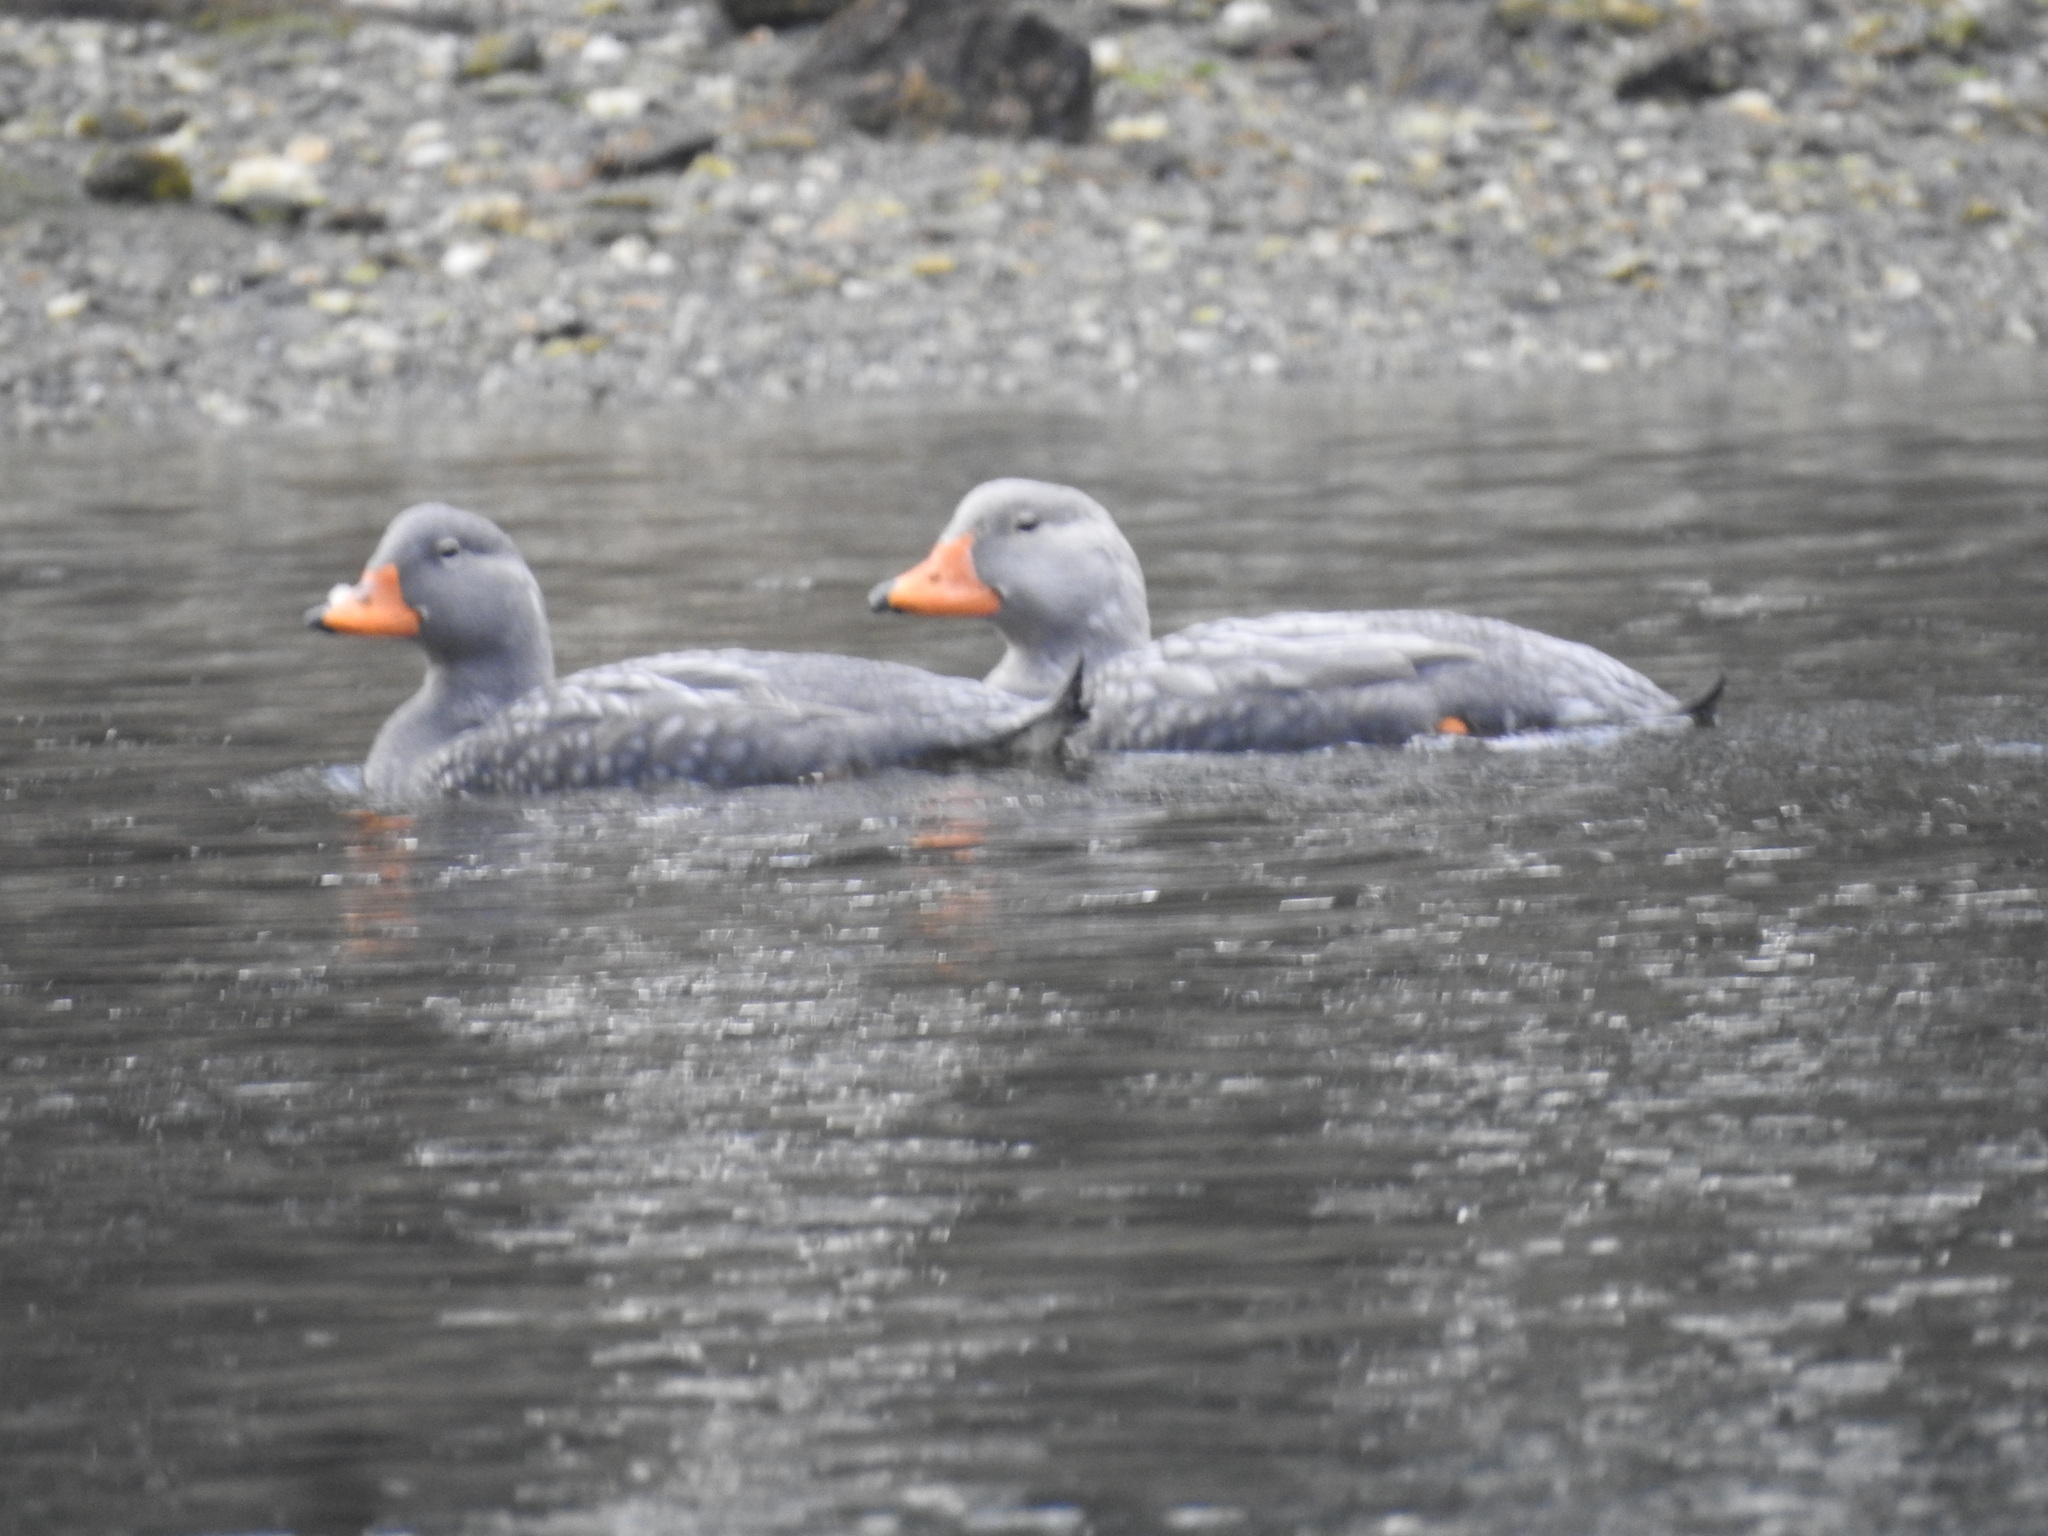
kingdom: Animalia
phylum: Chordata
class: Aves
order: Anseriformes
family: Anatidae
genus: Tachyeres
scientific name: Tachyeres pteneres
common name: Fuegian steamer duck
